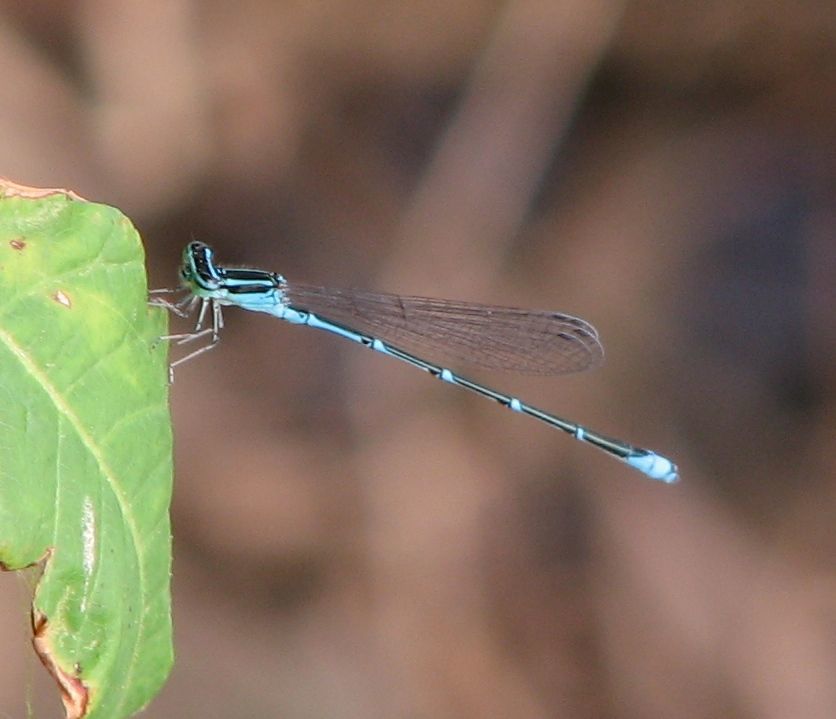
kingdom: Animalia
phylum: Arthropoda
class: Insecta
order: Odonata
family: Coenagrionidae
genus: Enallagma
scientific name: Enallagma exsulans
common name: Stream bluet
